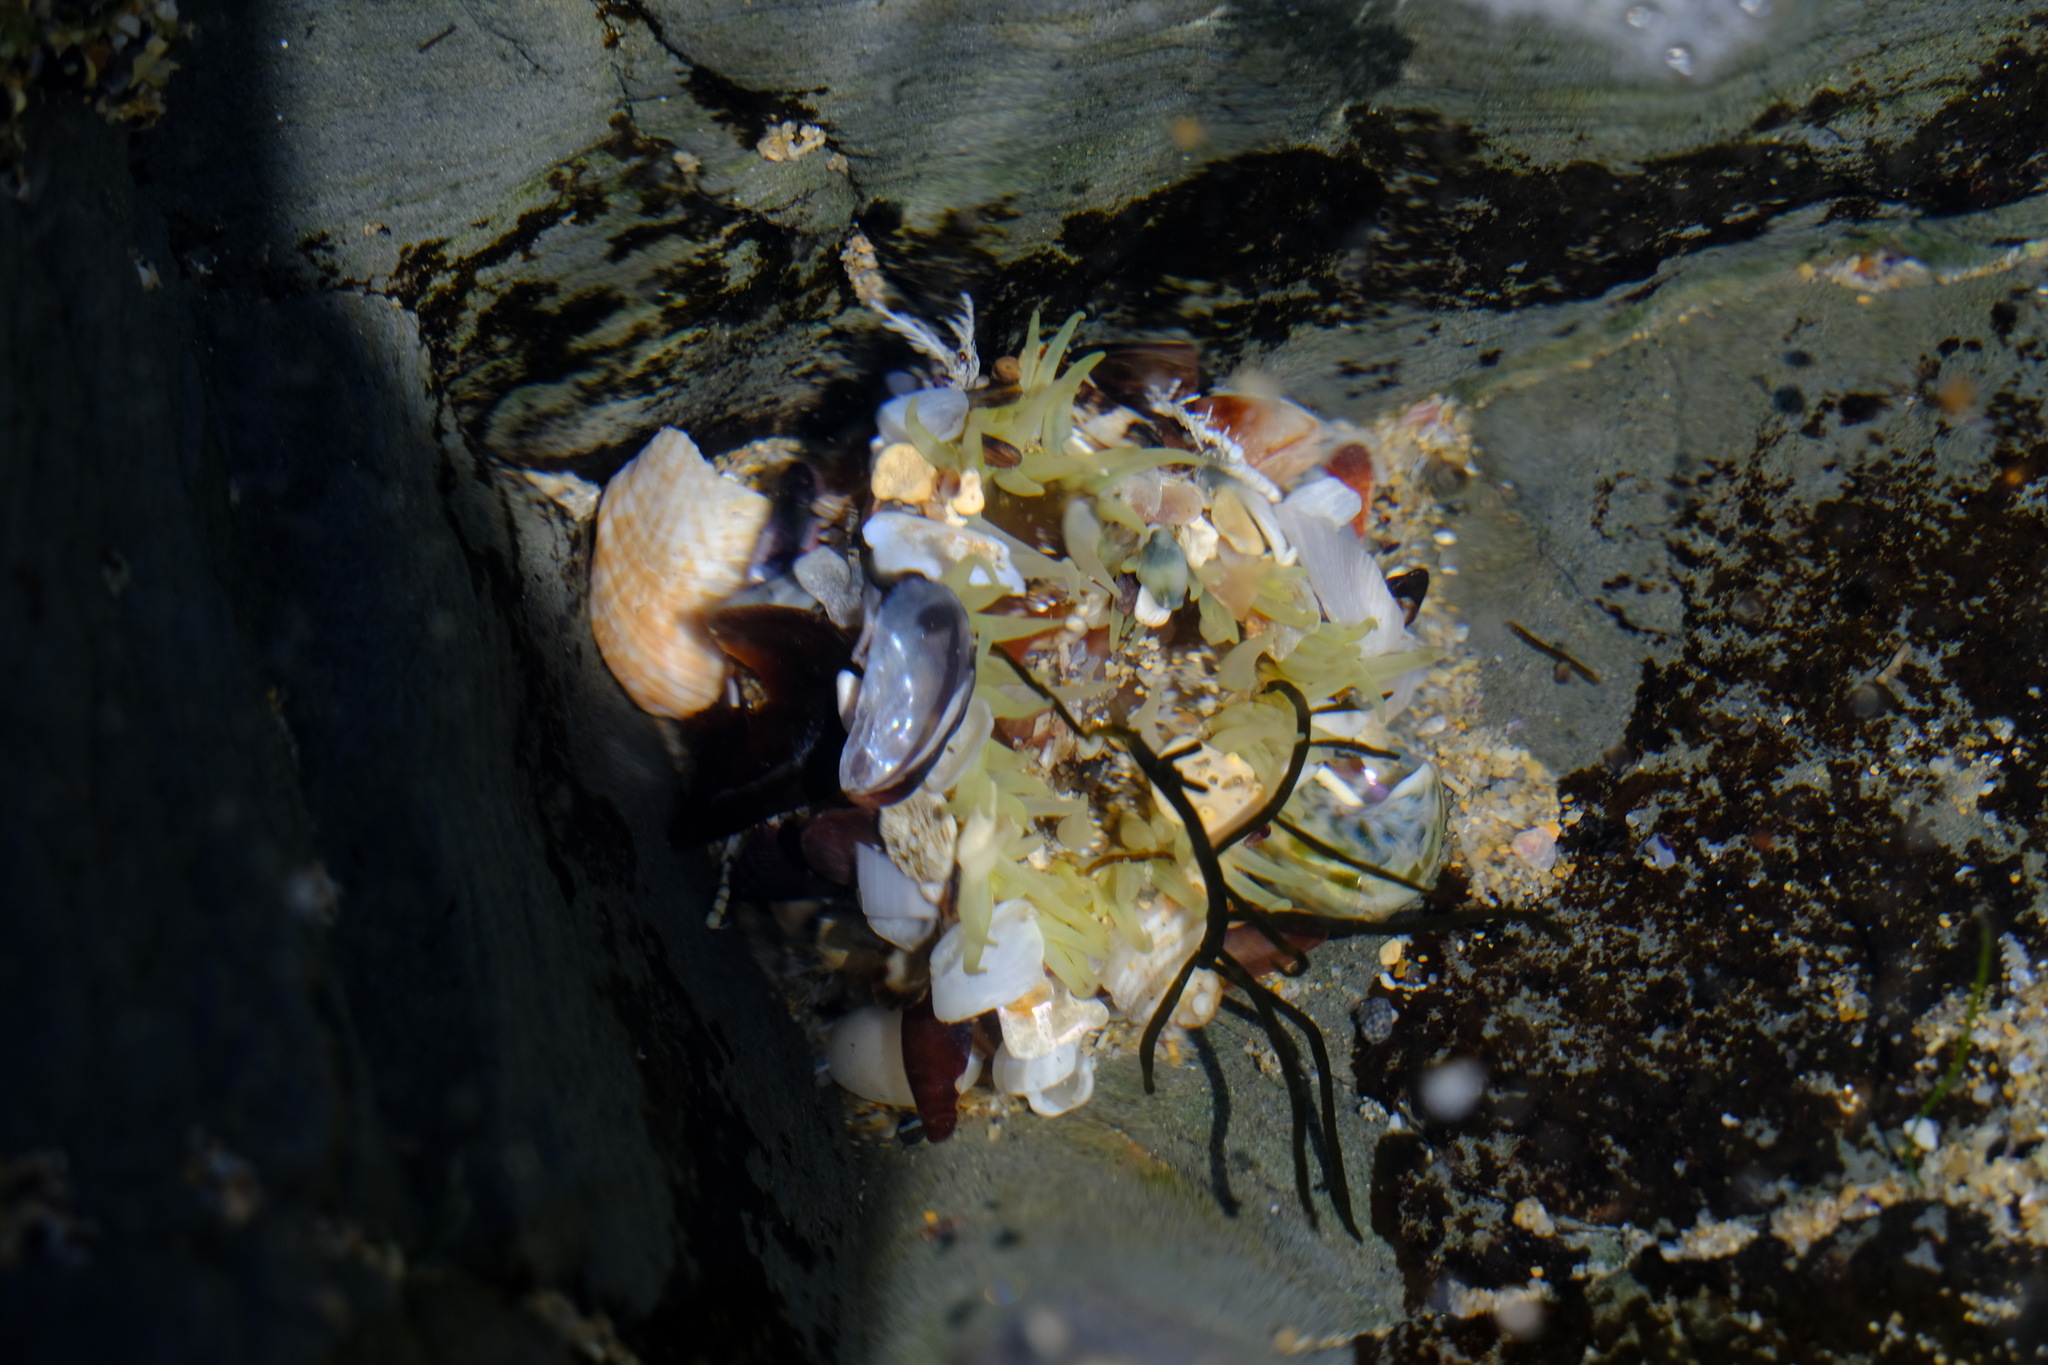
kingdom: Animalia
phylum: Cnidaria
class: Anthozoa
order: Actiniaria
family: Actiniidae
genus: Oulactis
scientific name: Oulactis muscosa
